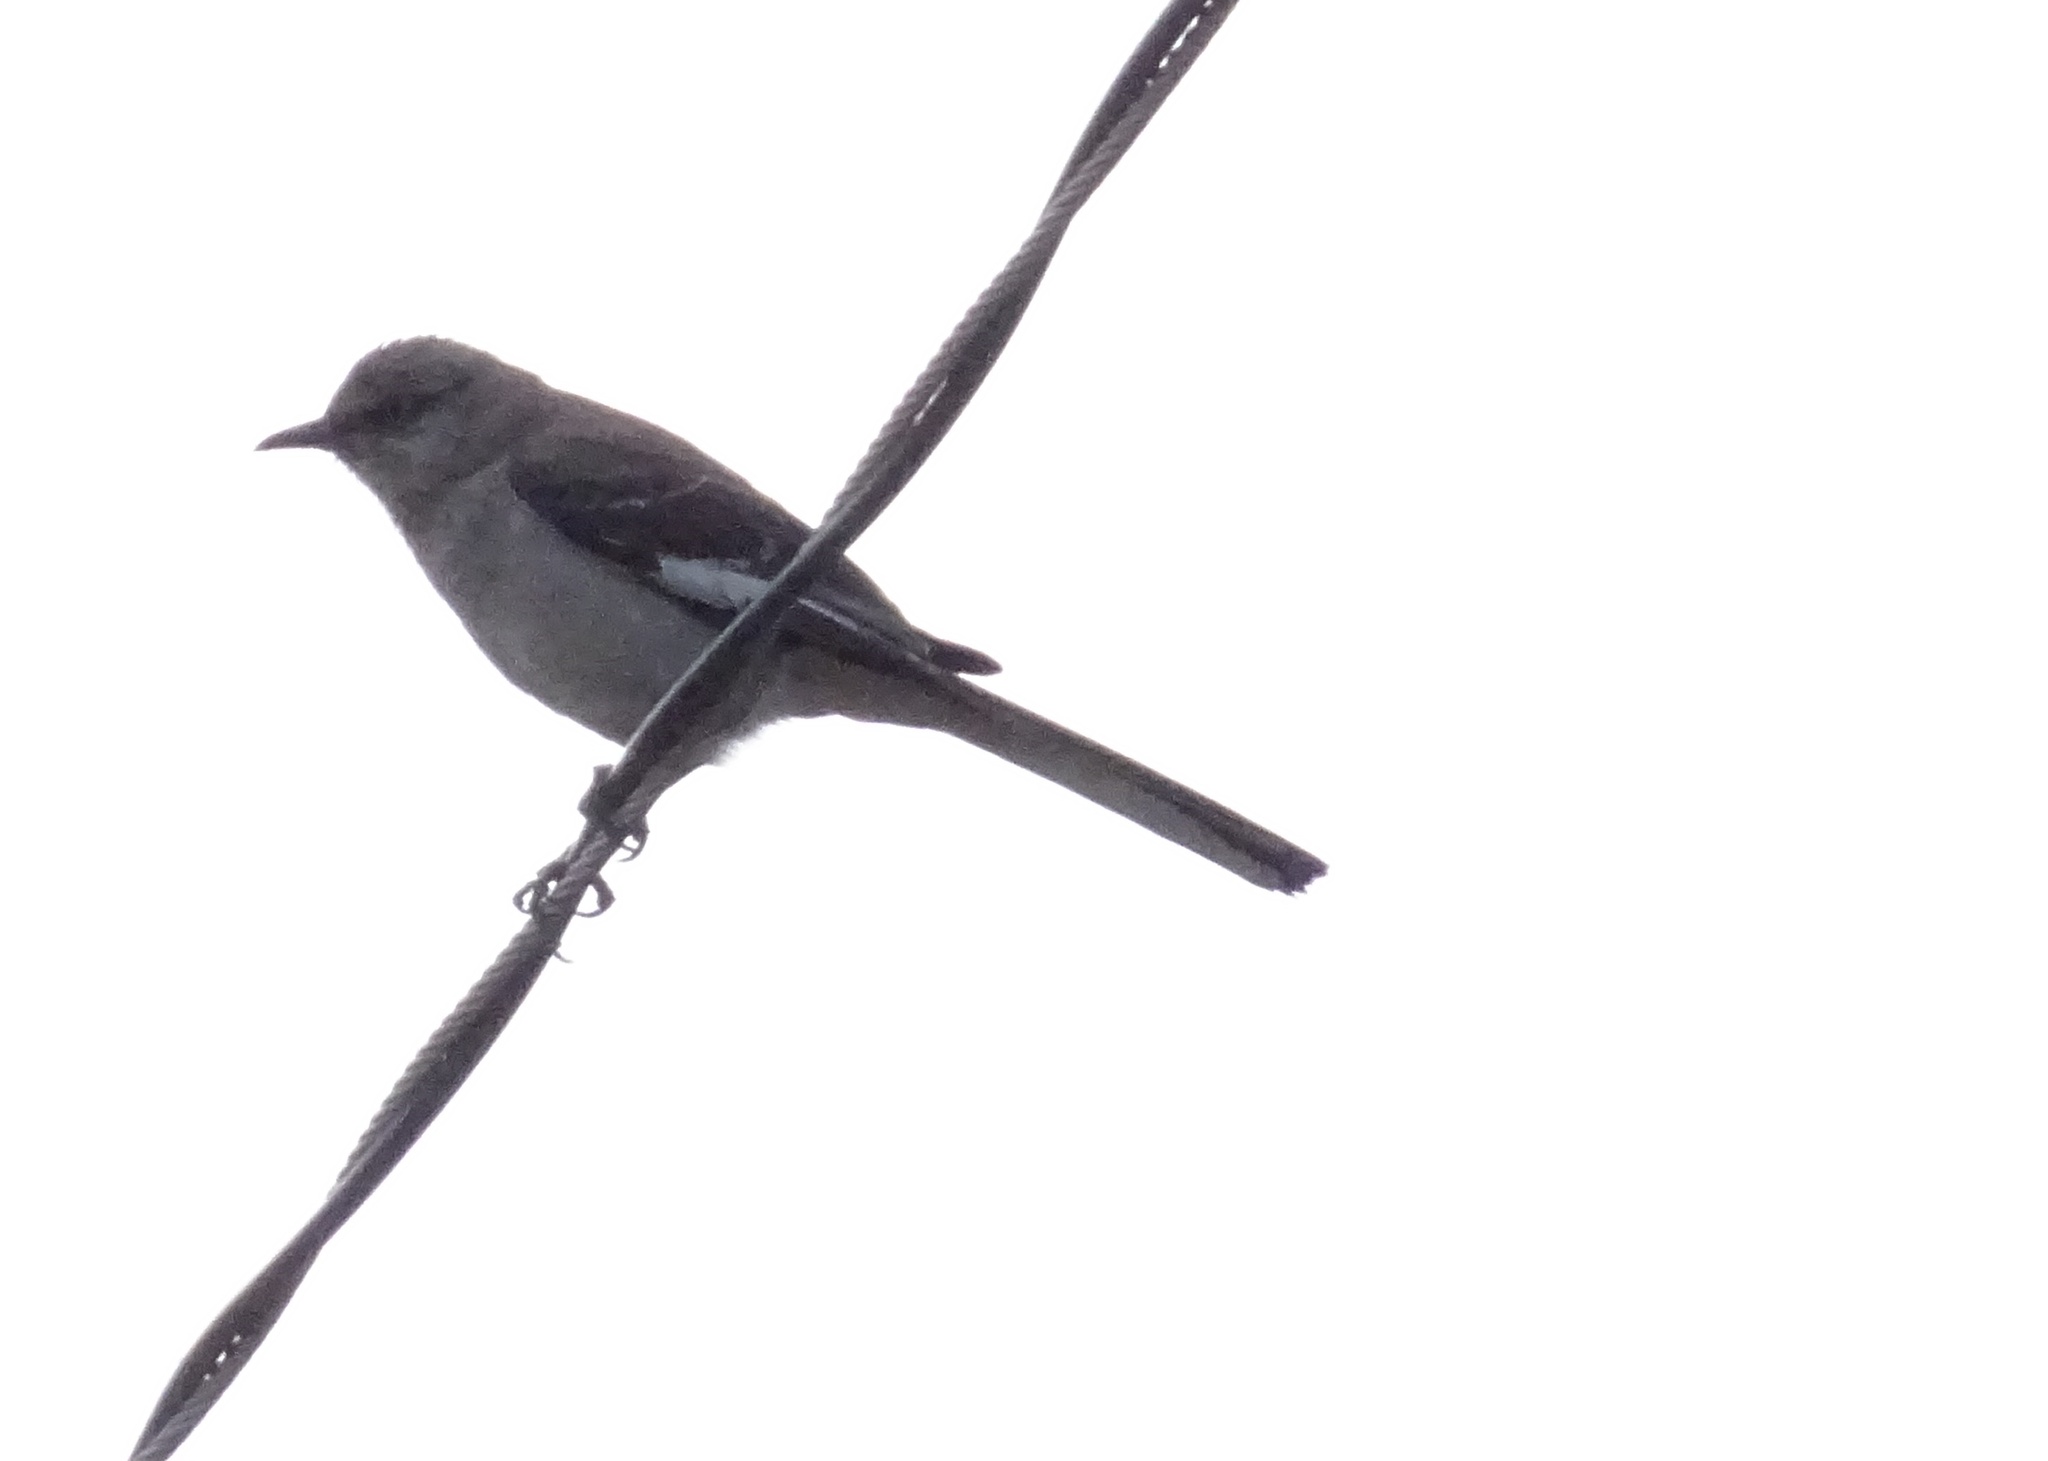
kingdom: Animalia
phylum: Chordata
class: Aves
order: Passeriformes
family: Mimidae
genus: Mimus
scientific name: Mimus polyglottos
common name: Northern mockingbird
